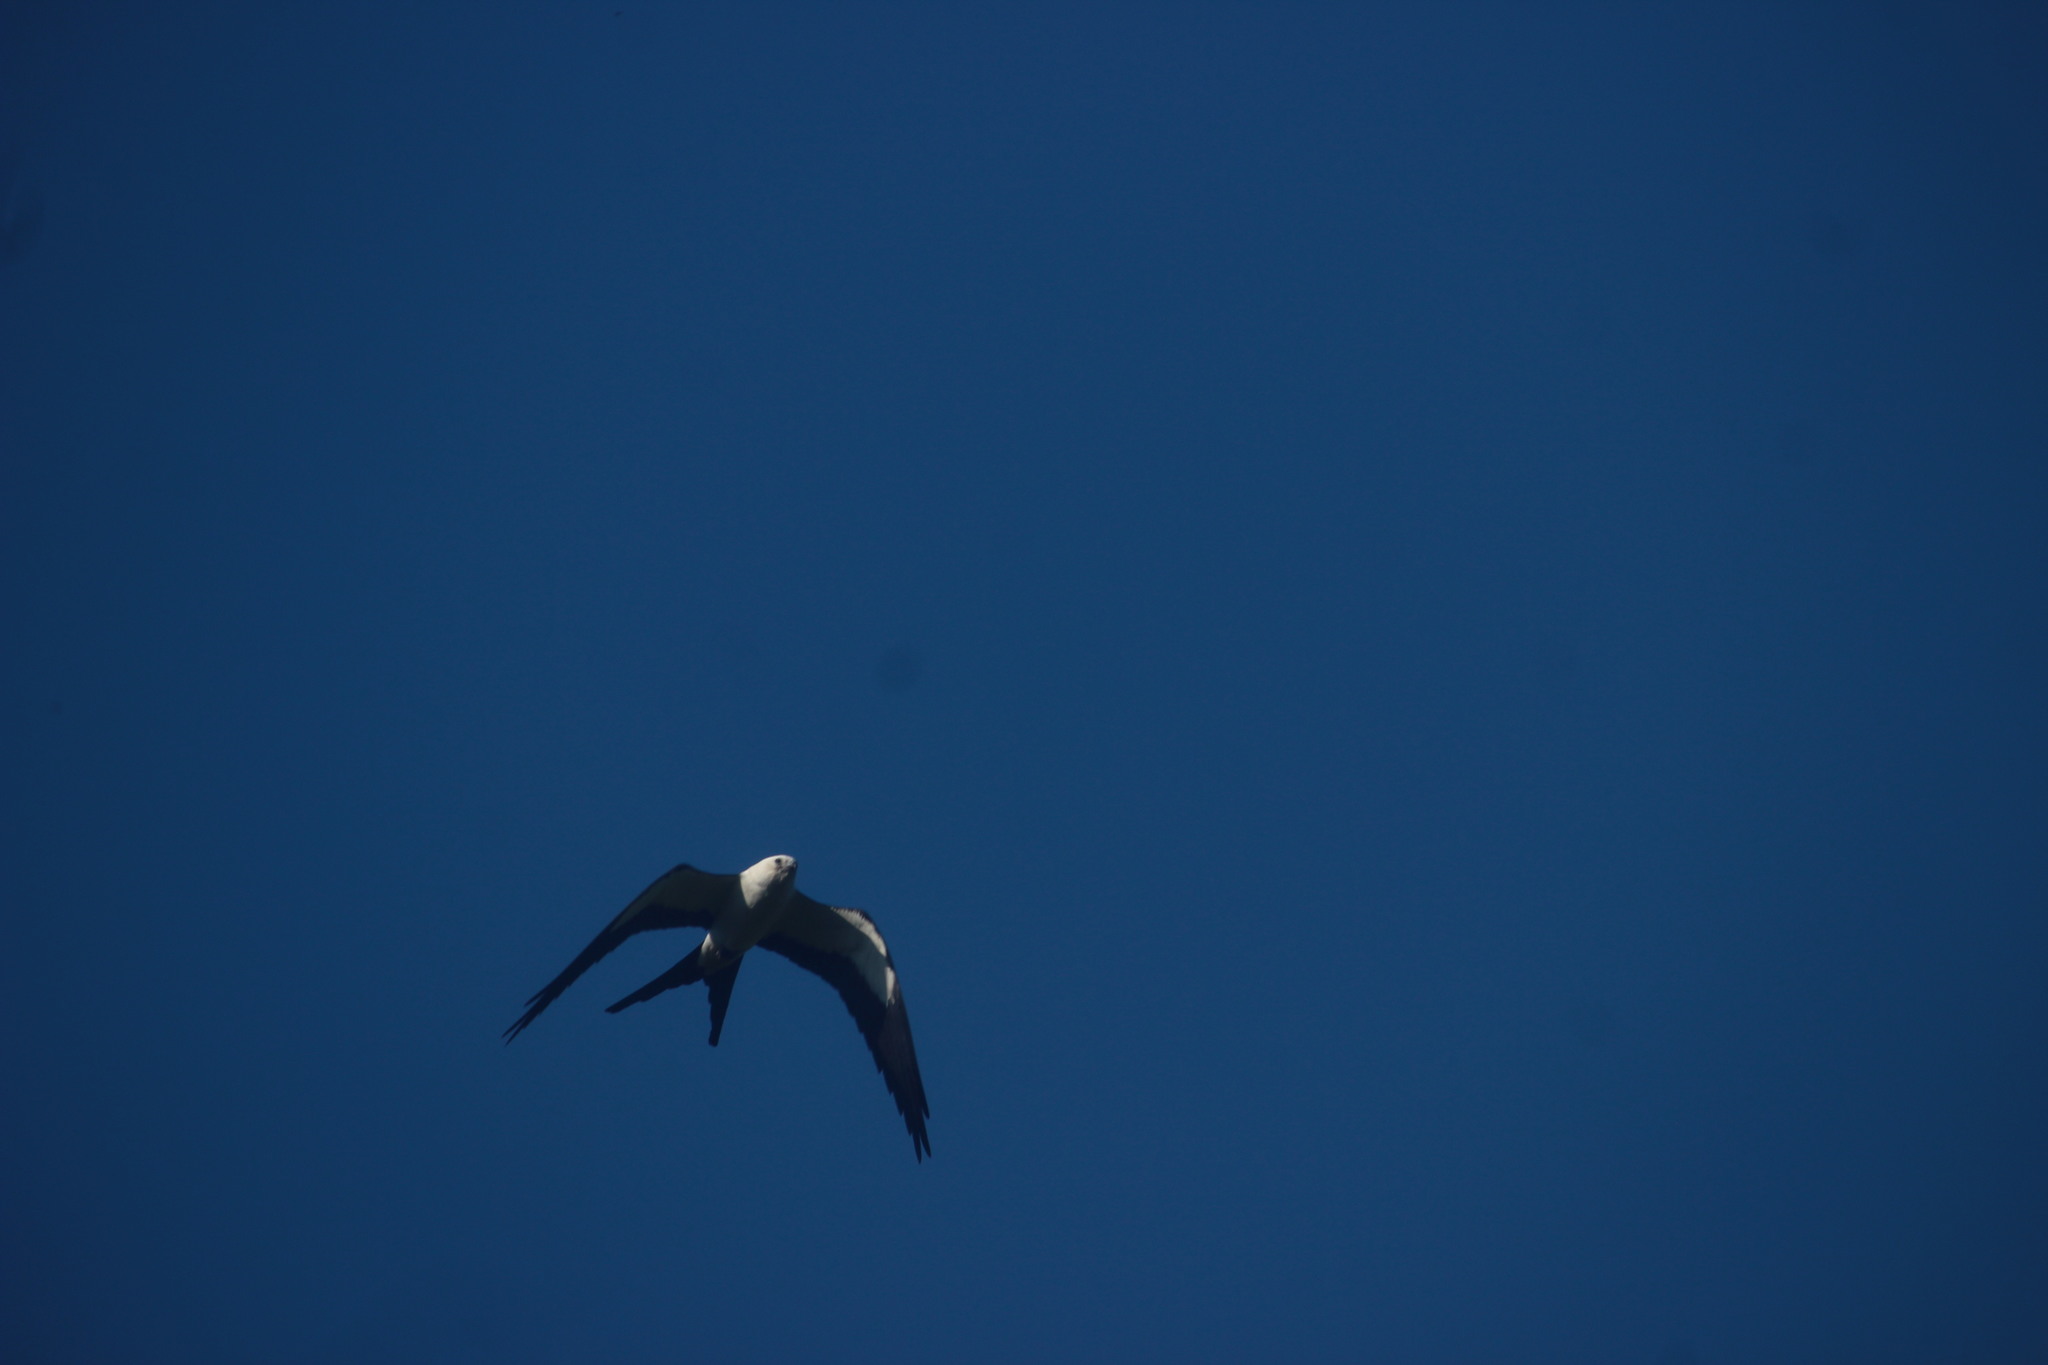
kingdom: Animalia
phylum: Chordata
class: Aves
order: Accipitriformes
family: Accipitridae
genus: Elanoides
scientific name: Elanoides forficatus
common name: Swallow-tailed kite
